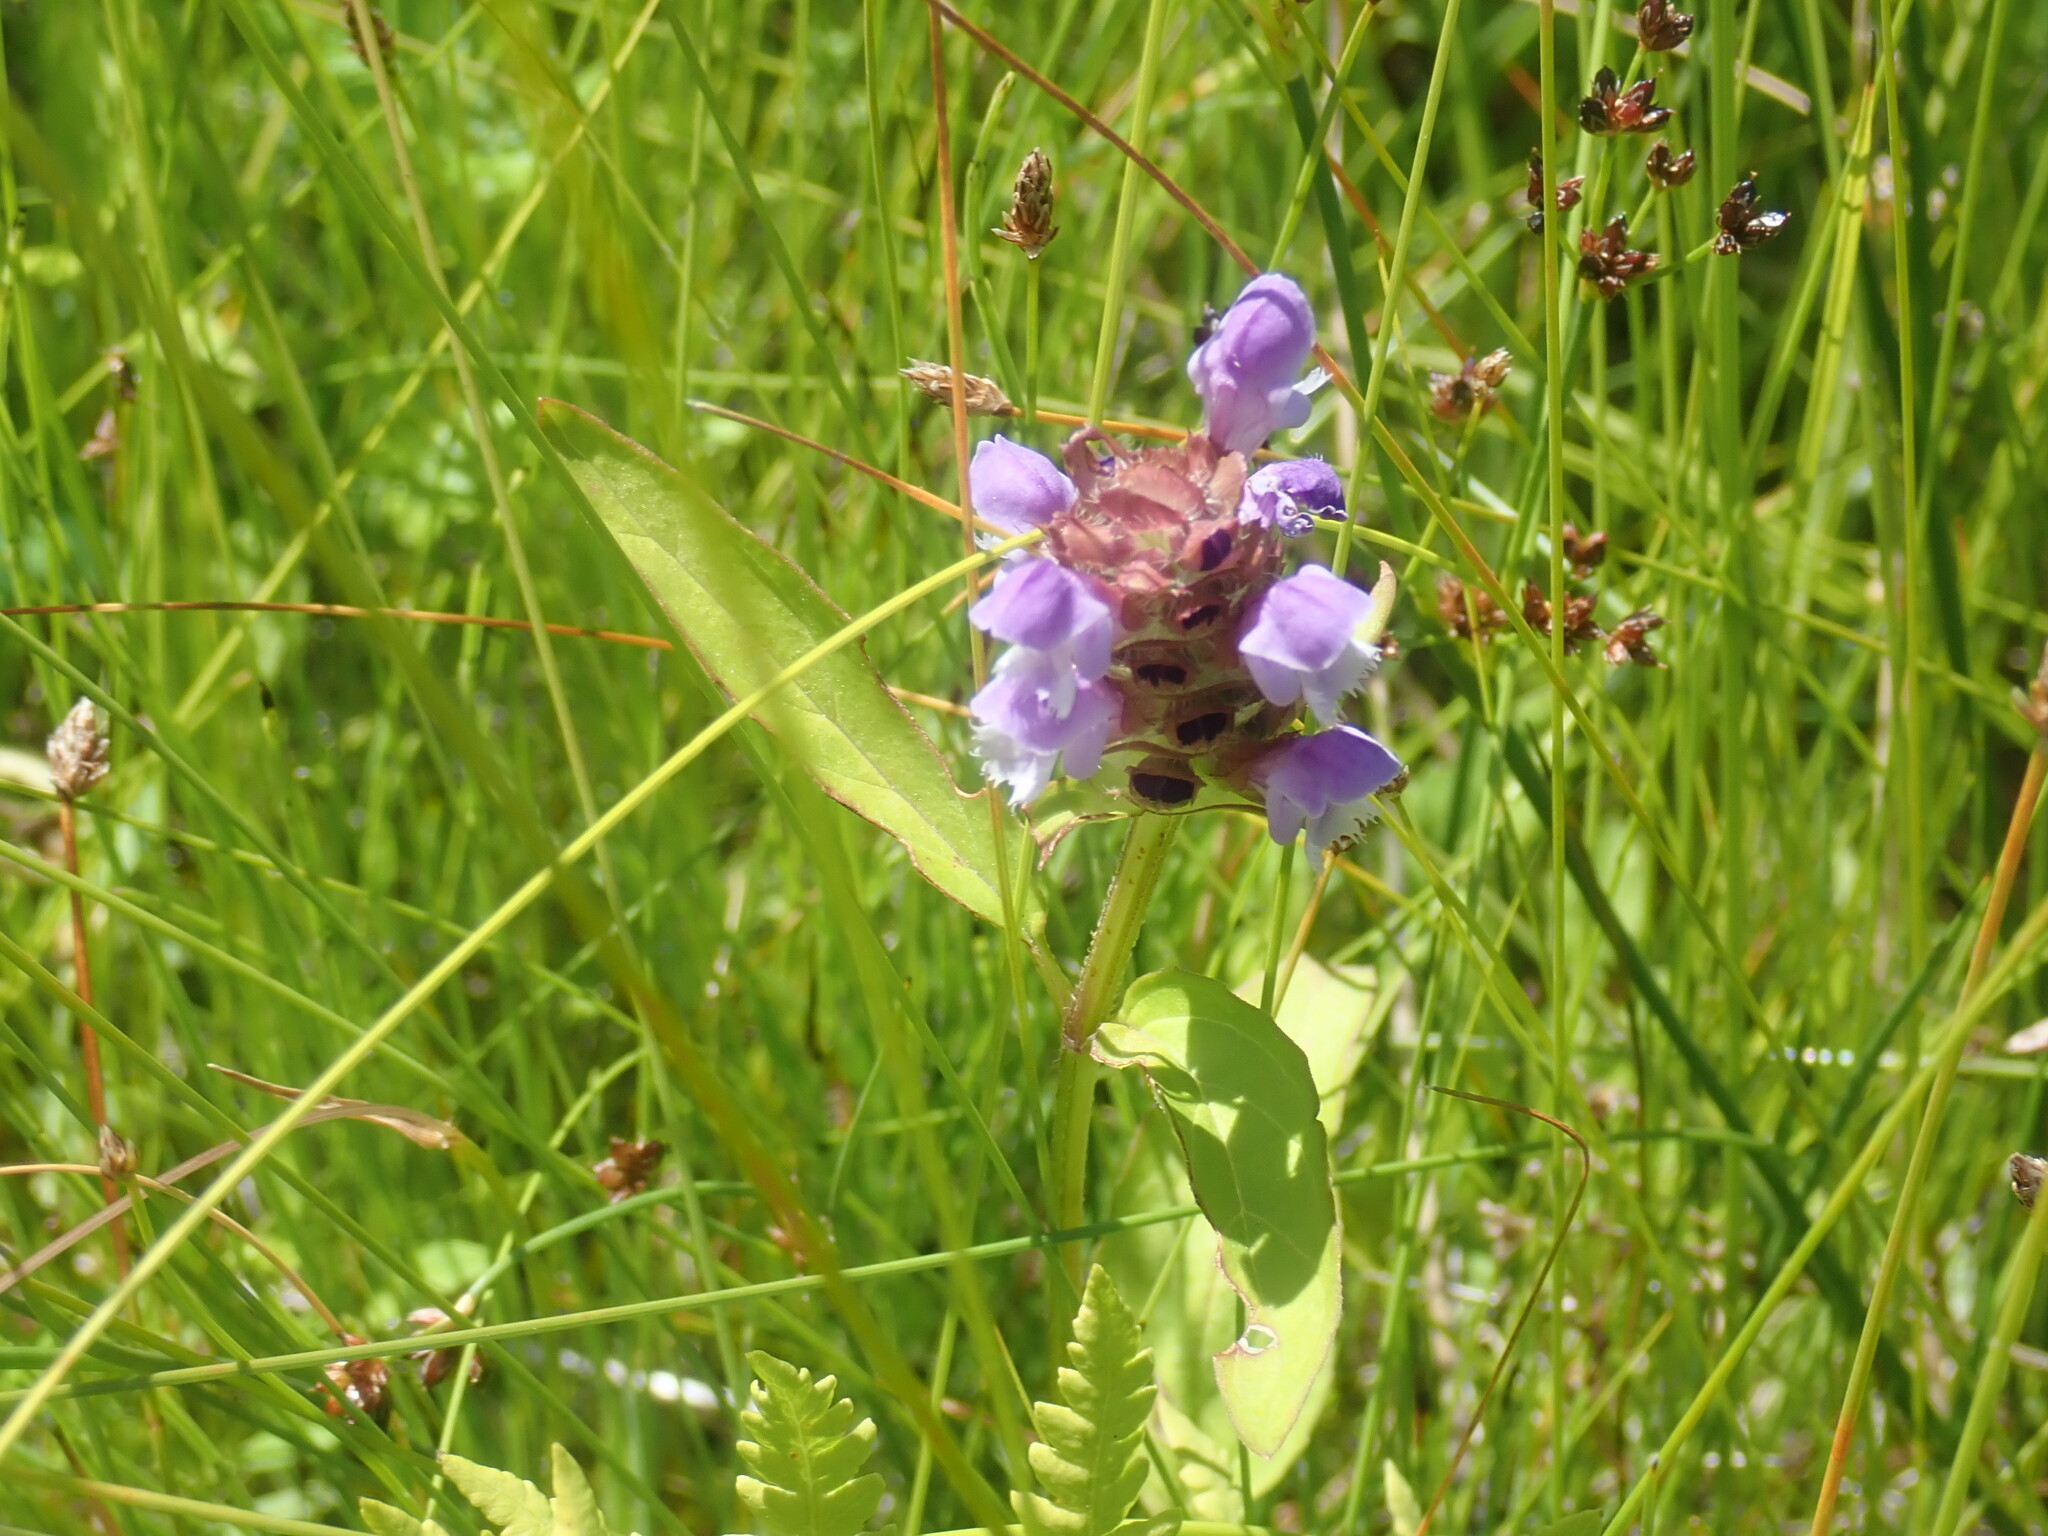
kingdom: Plantae
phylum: Tracheophyta
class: Magnoliopsida
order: Lamiales
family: Lamiaceae
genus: Prunella
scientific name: Prunella vulgaris
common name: Heal-all
